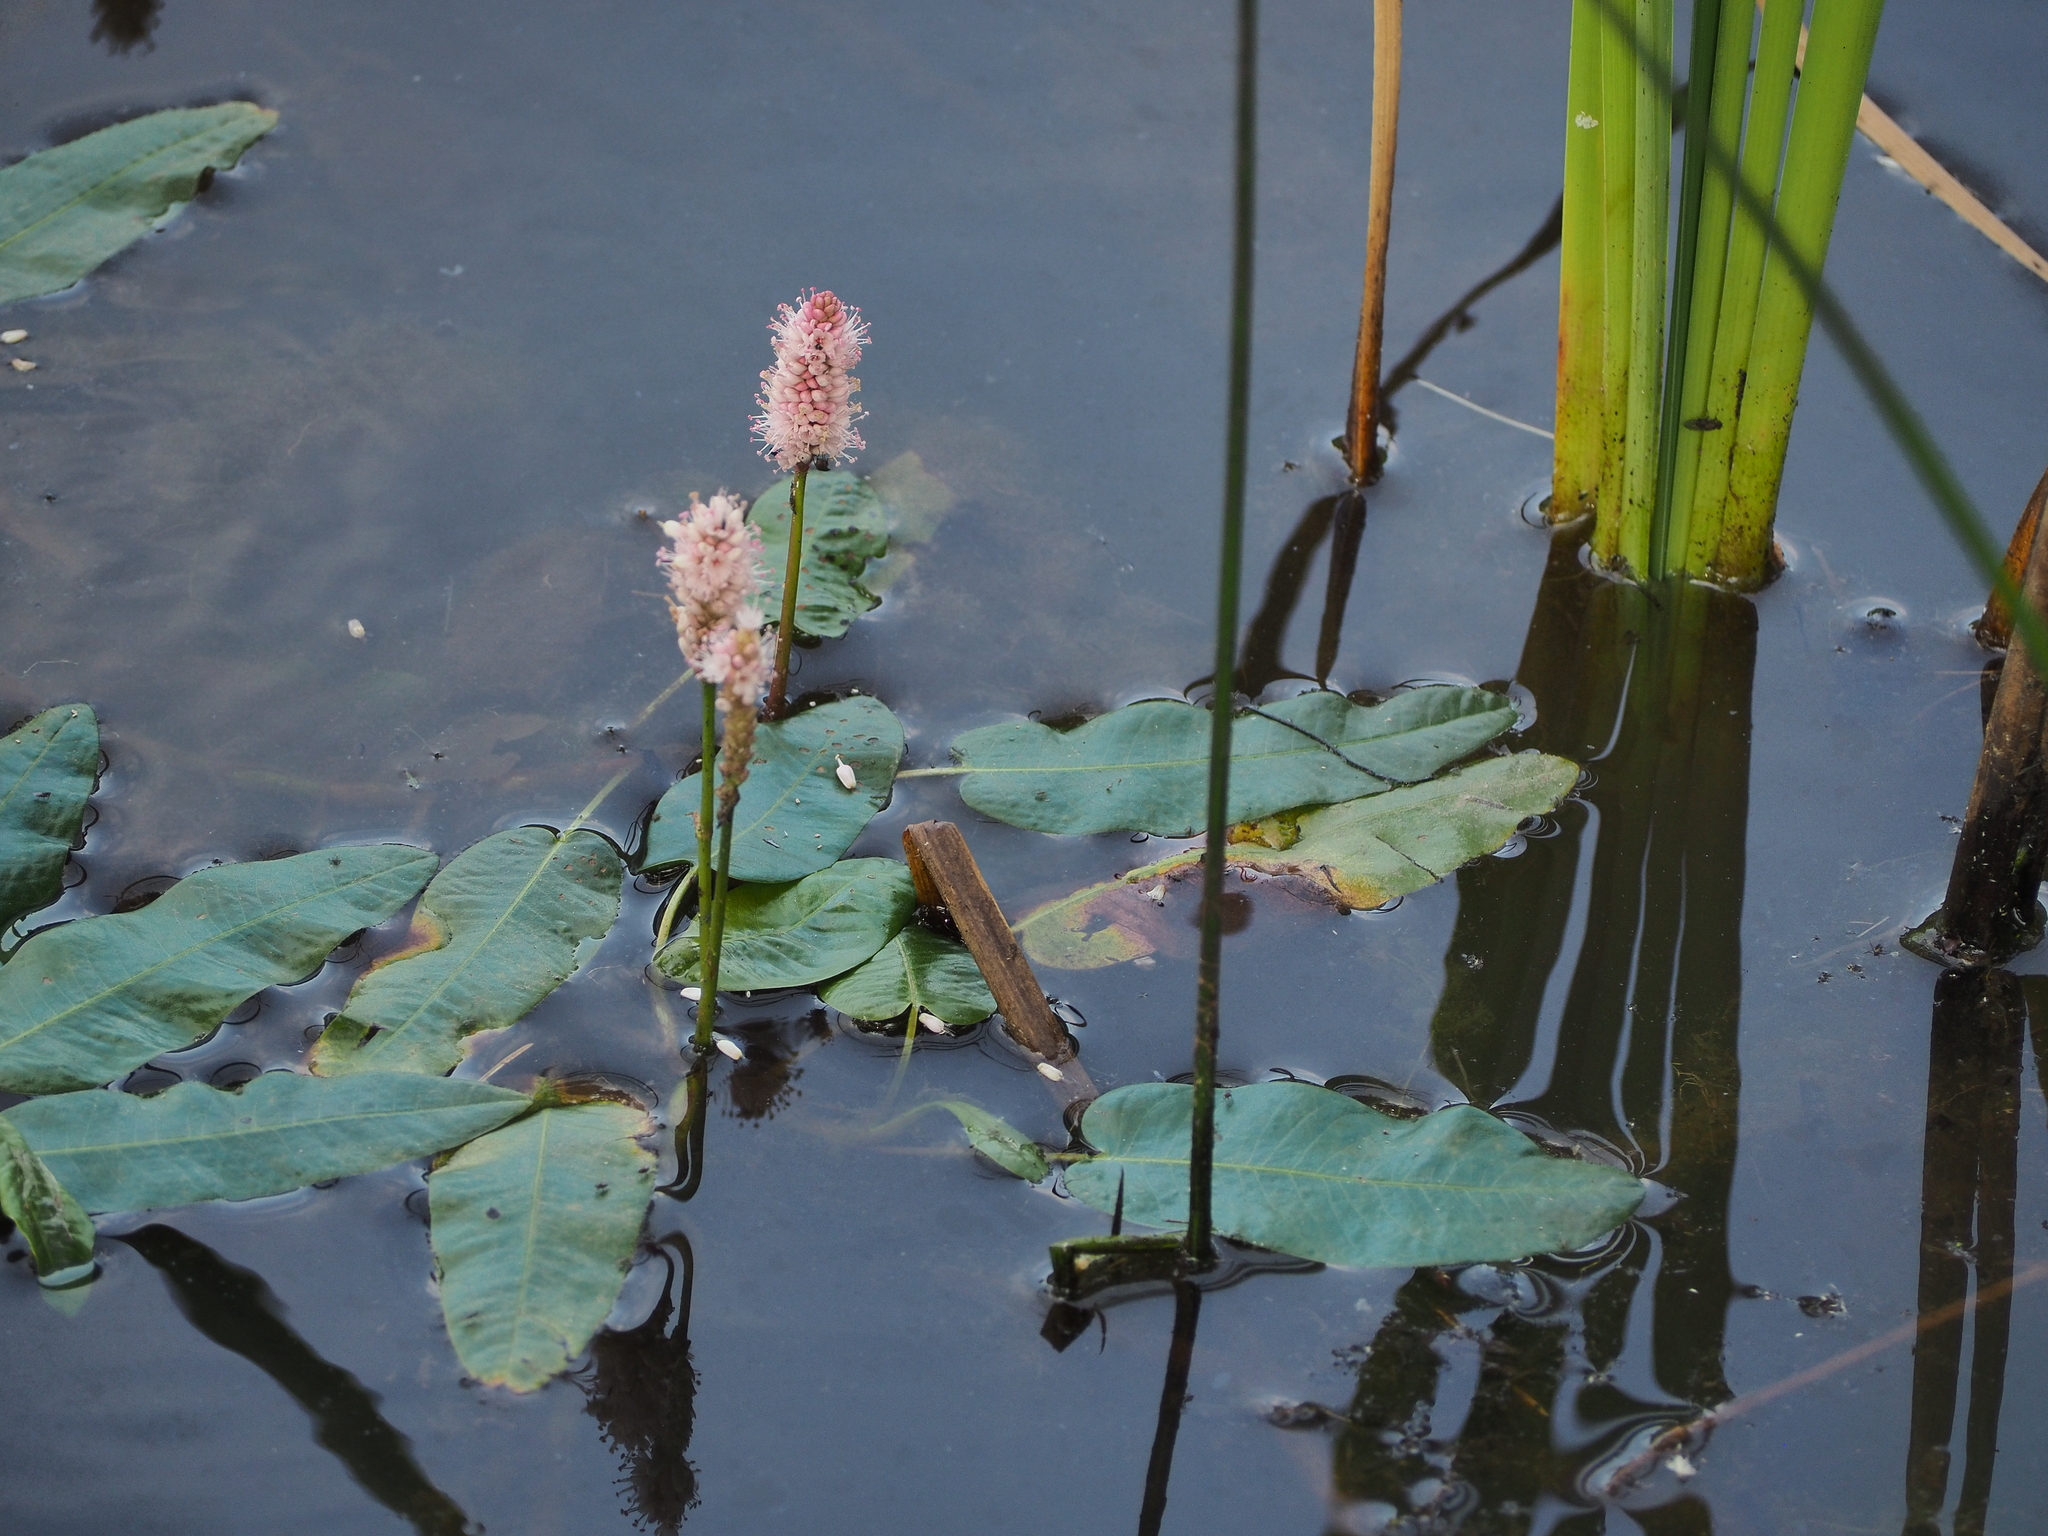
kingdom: Plantae
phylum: Tracheophyta
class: Magnoliopsida
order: Caryophyllales
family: Polygonaceae
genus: Persicaria
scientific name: Persicaria amphibia
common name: Amphibious bistort
